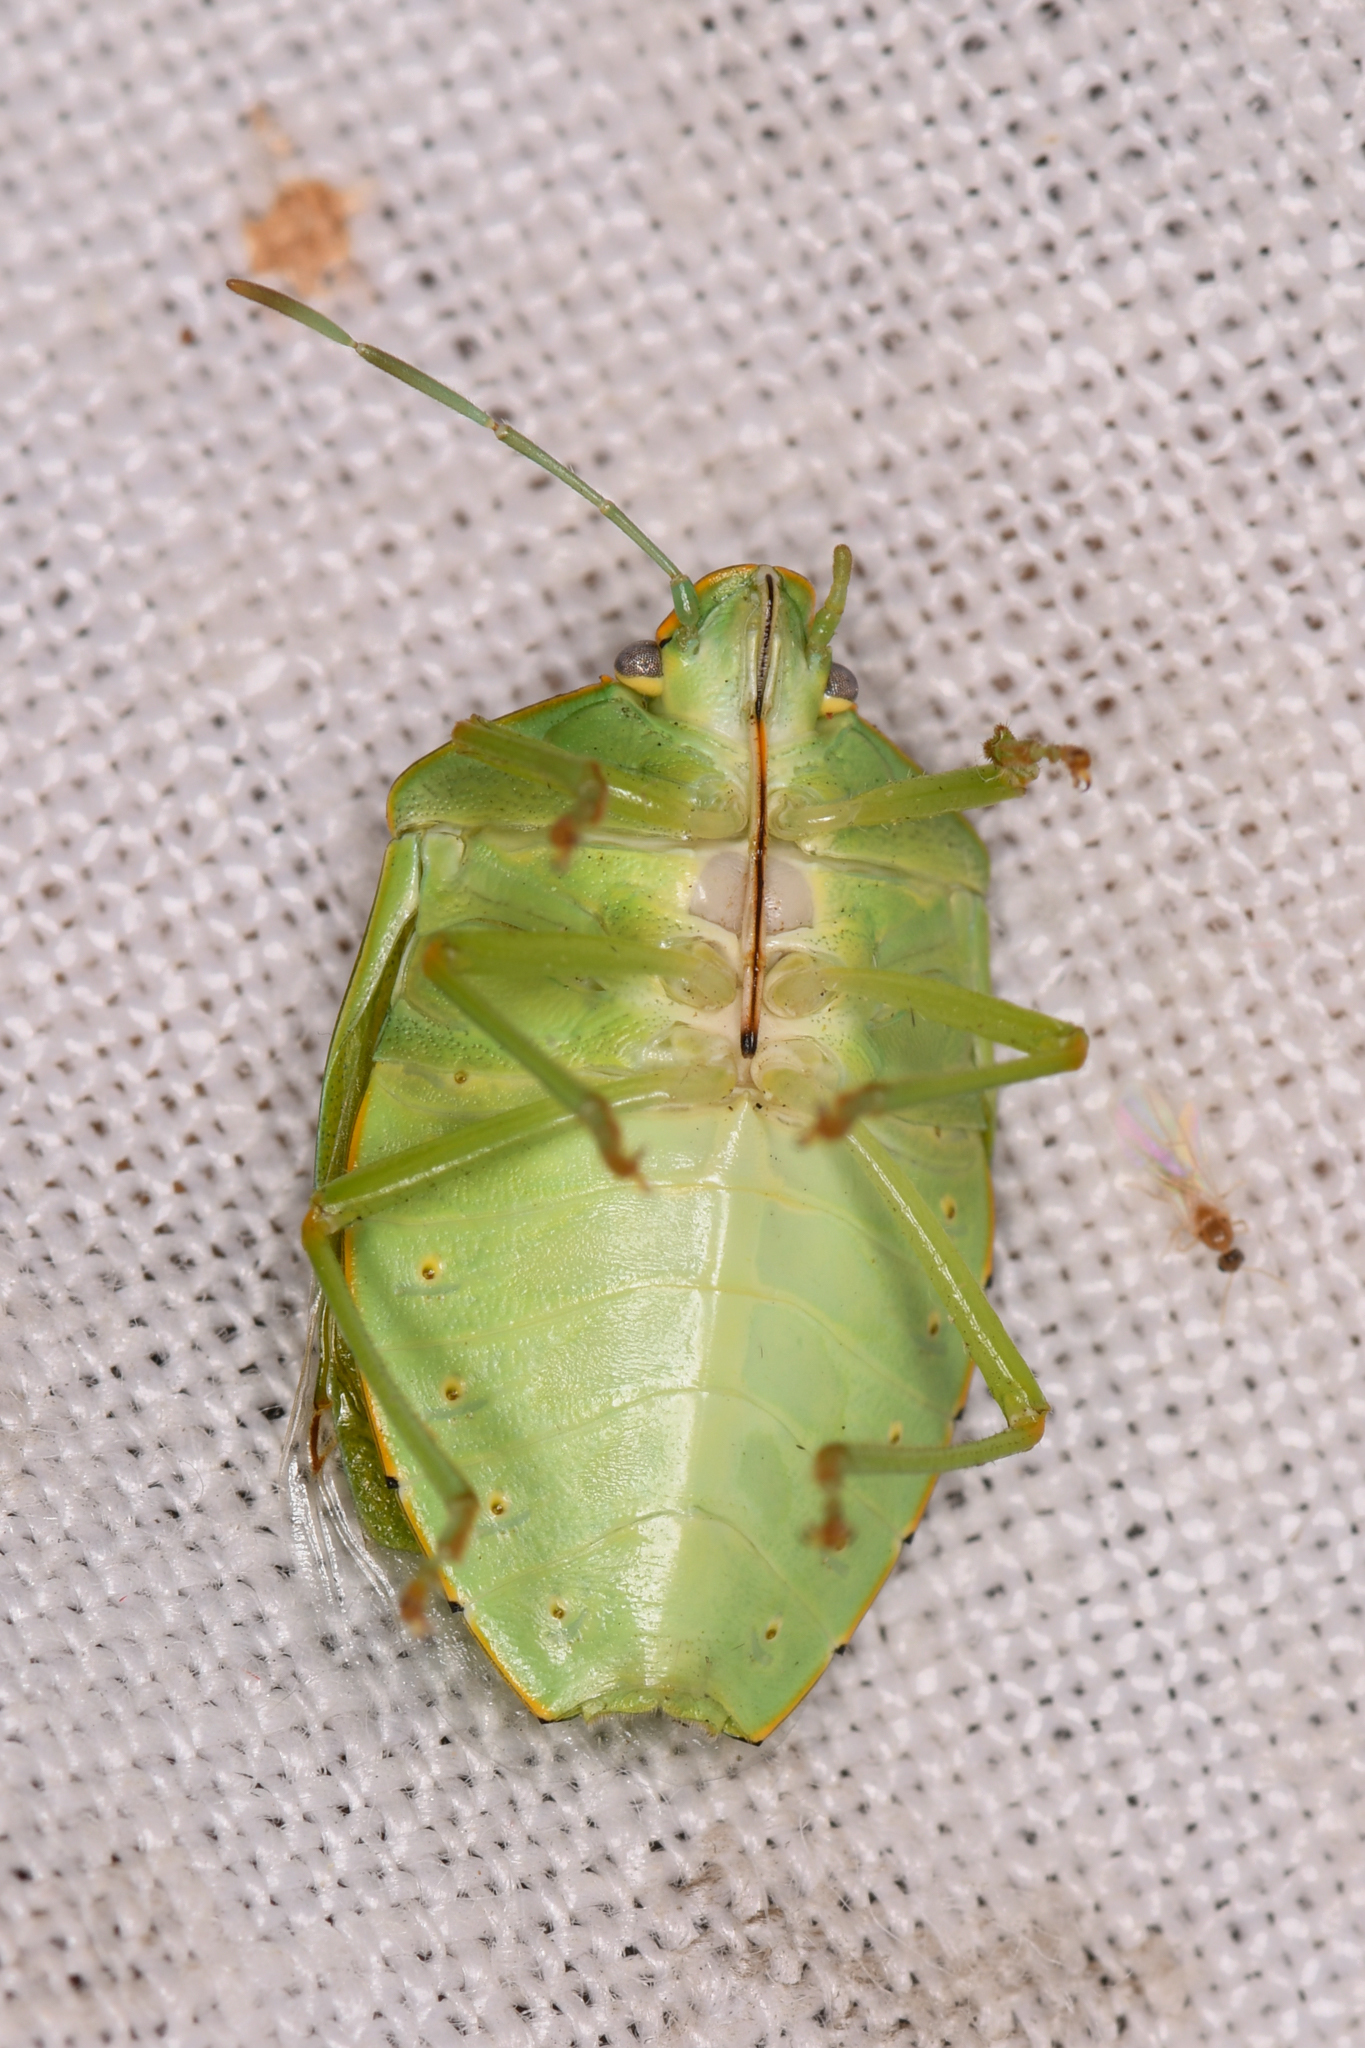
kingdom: Animalia
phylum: Arthropoda
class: Insecta
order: Hemiptera
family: Pentatomidae
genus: Chinavia
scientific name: Chinavia hilaris
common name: Green stink bug
